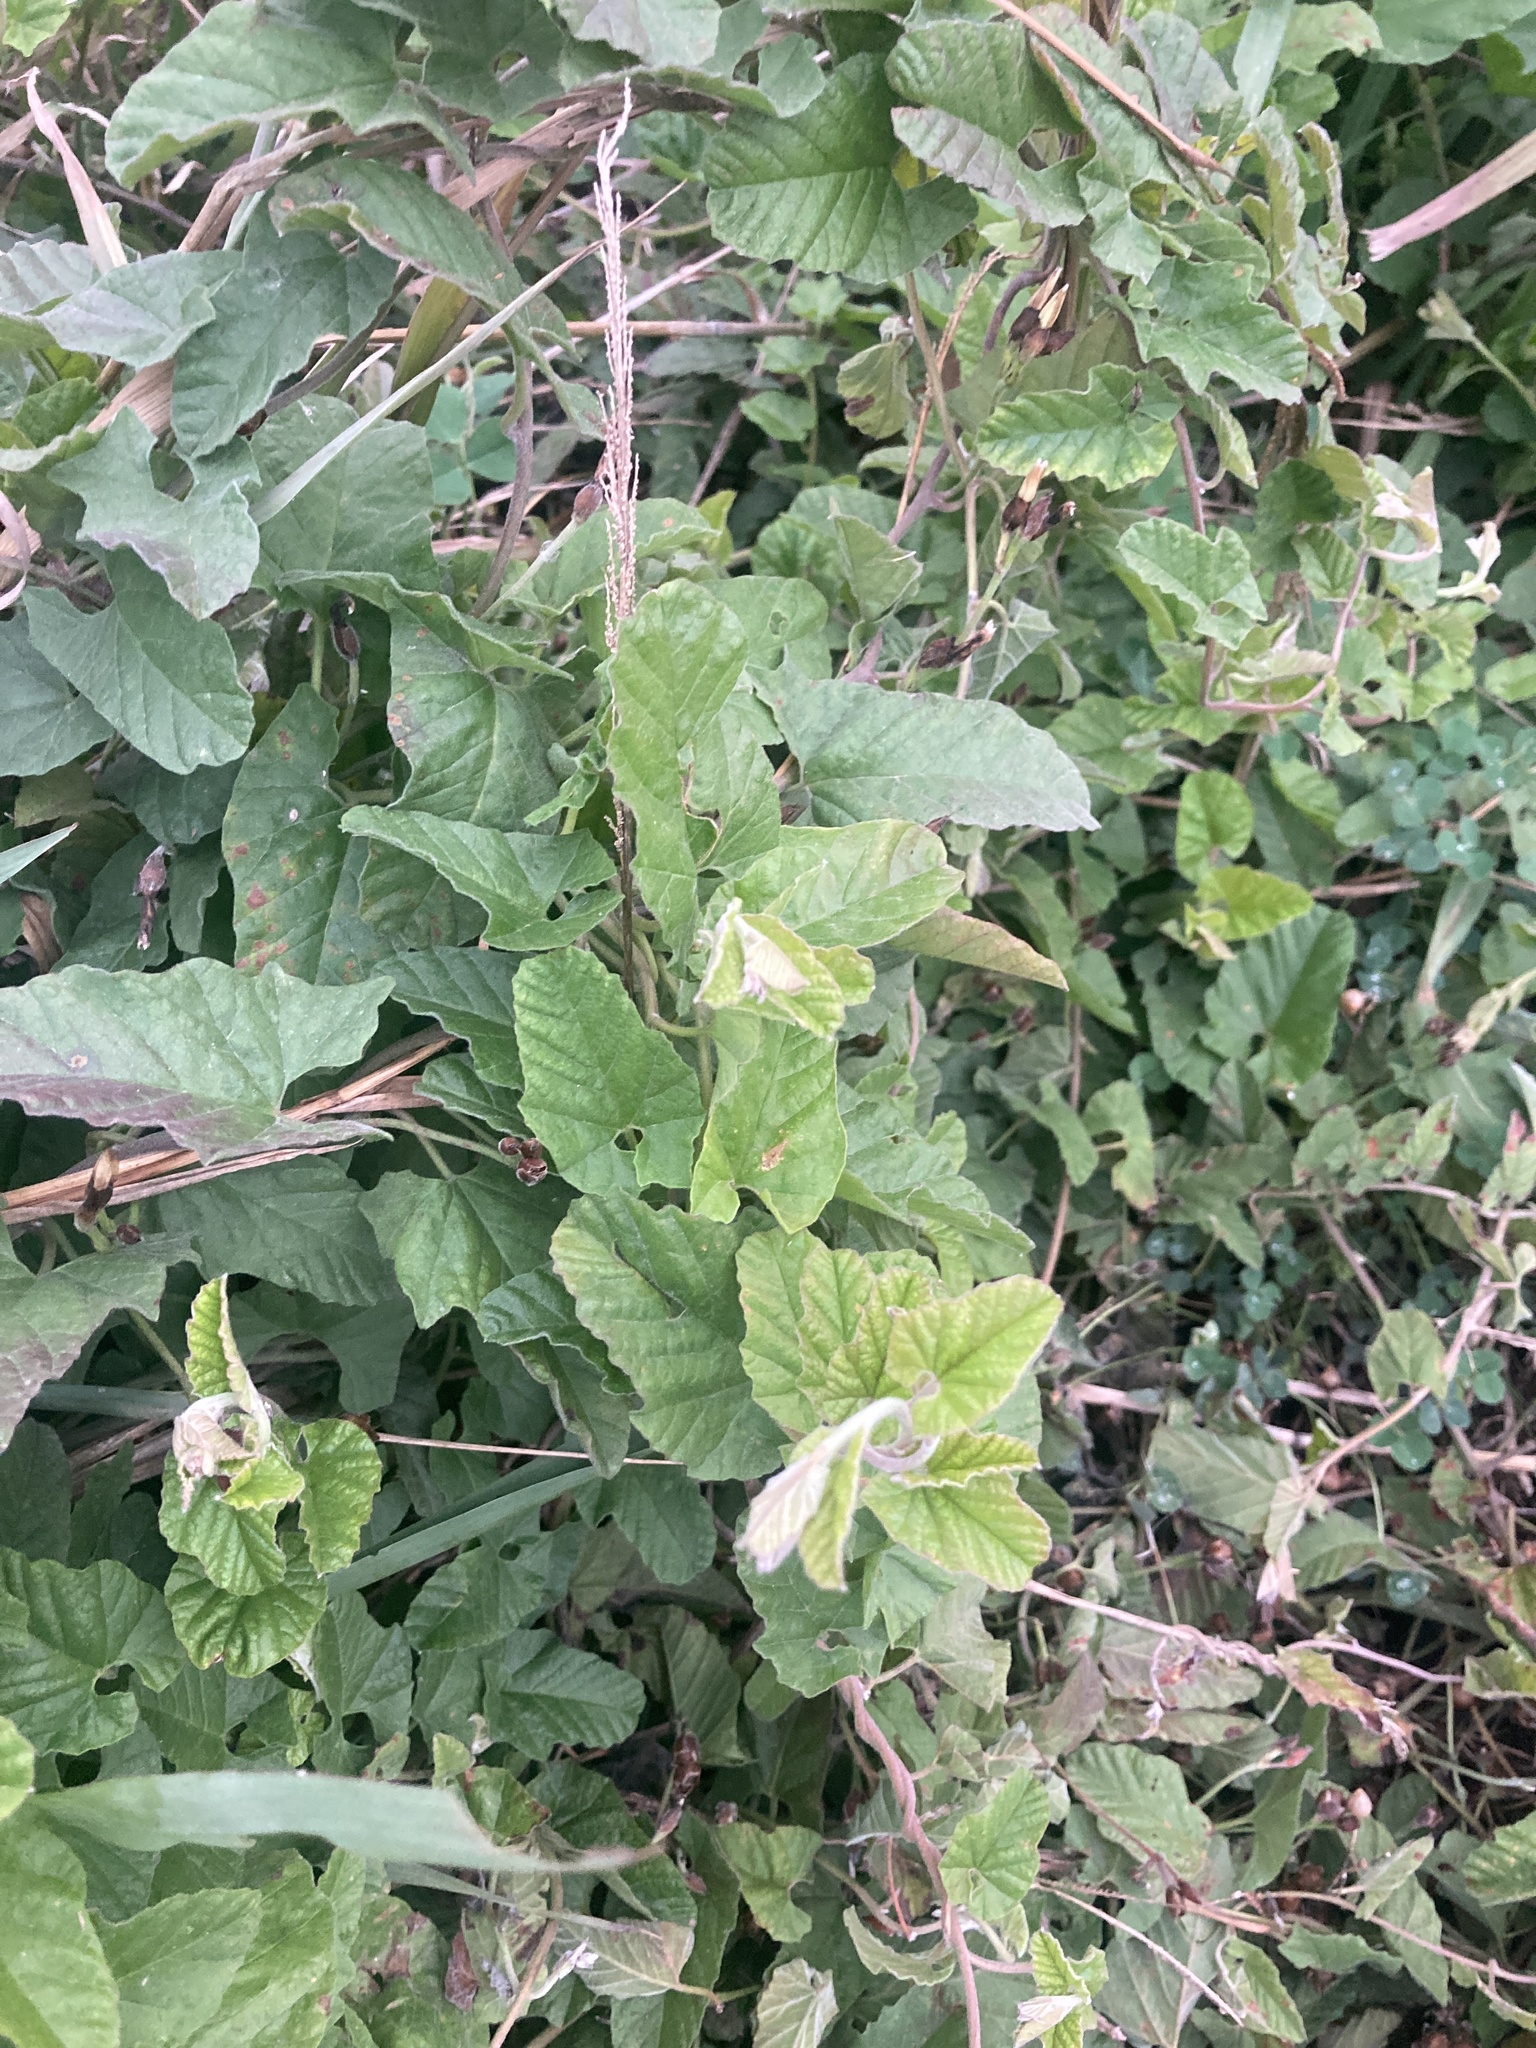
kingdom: Plantae
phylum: Tracheophyta
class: Magnoliopsida
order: Solanales
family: Convolvulaceae
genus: Convolvulus
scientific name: Convolvulus crenatifolius
